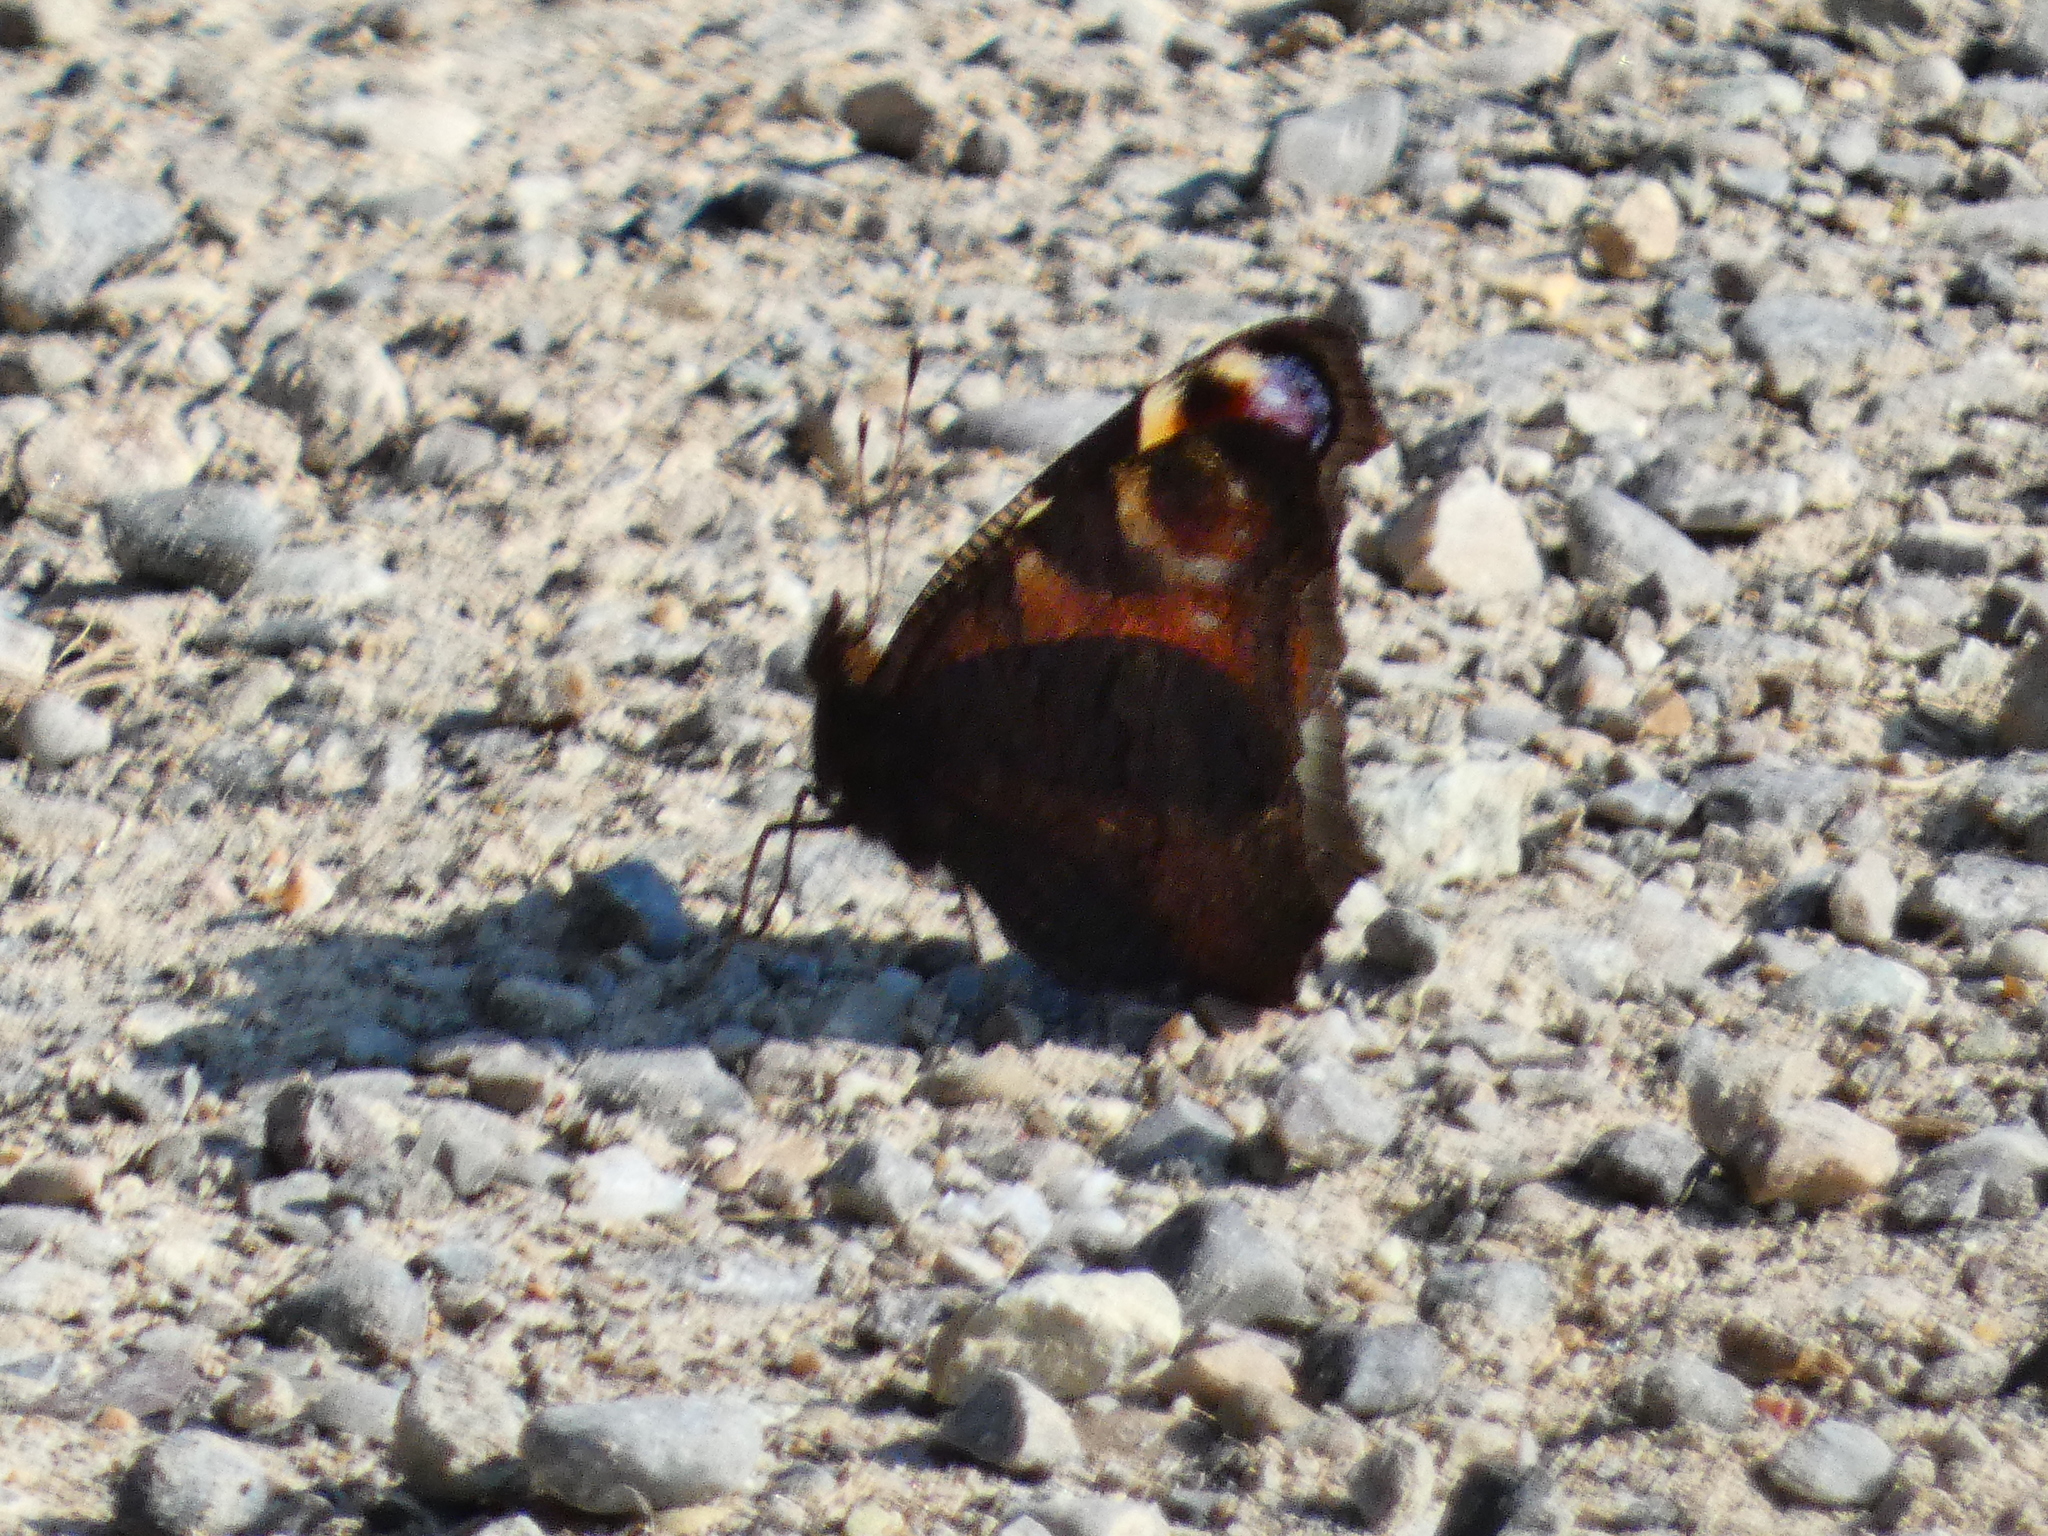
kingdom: Animalia
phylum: Arthropoda
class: Insecta
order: Lepidoptera
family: Nymphalidae
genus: Aglais
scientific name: Aglais io
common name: Peacock
